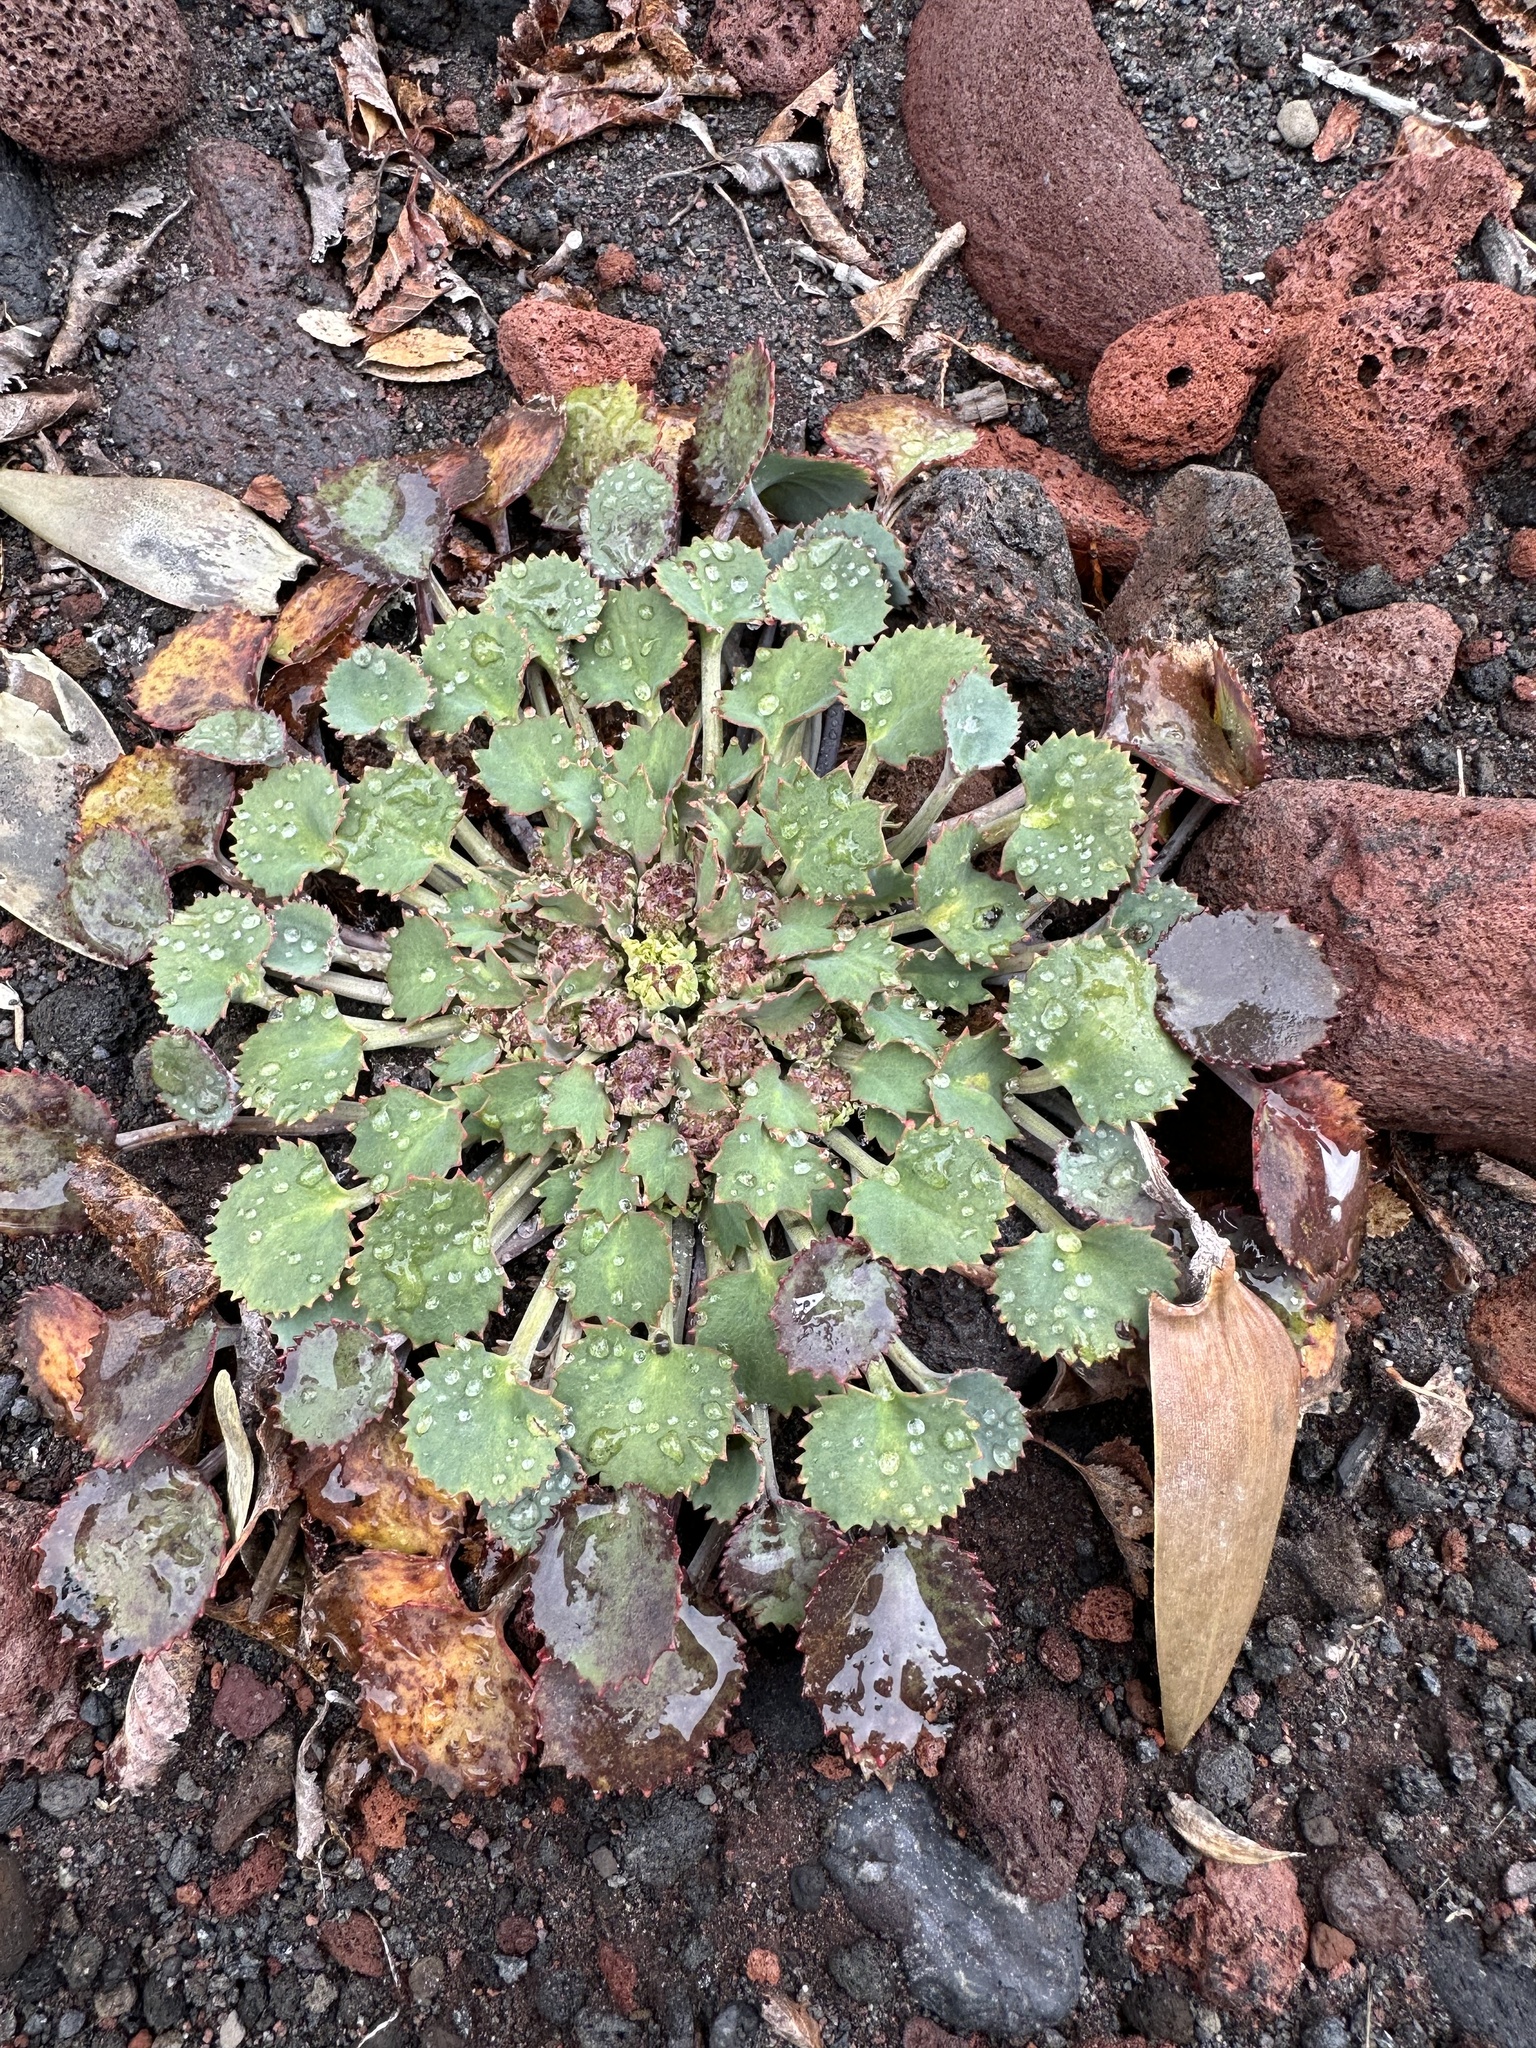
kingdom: Plantae
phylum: Tracheophyta
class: Magnoliopsida
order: Apiales
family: Apiaceae
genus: Pozoa
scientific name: Pozoa coriacea
